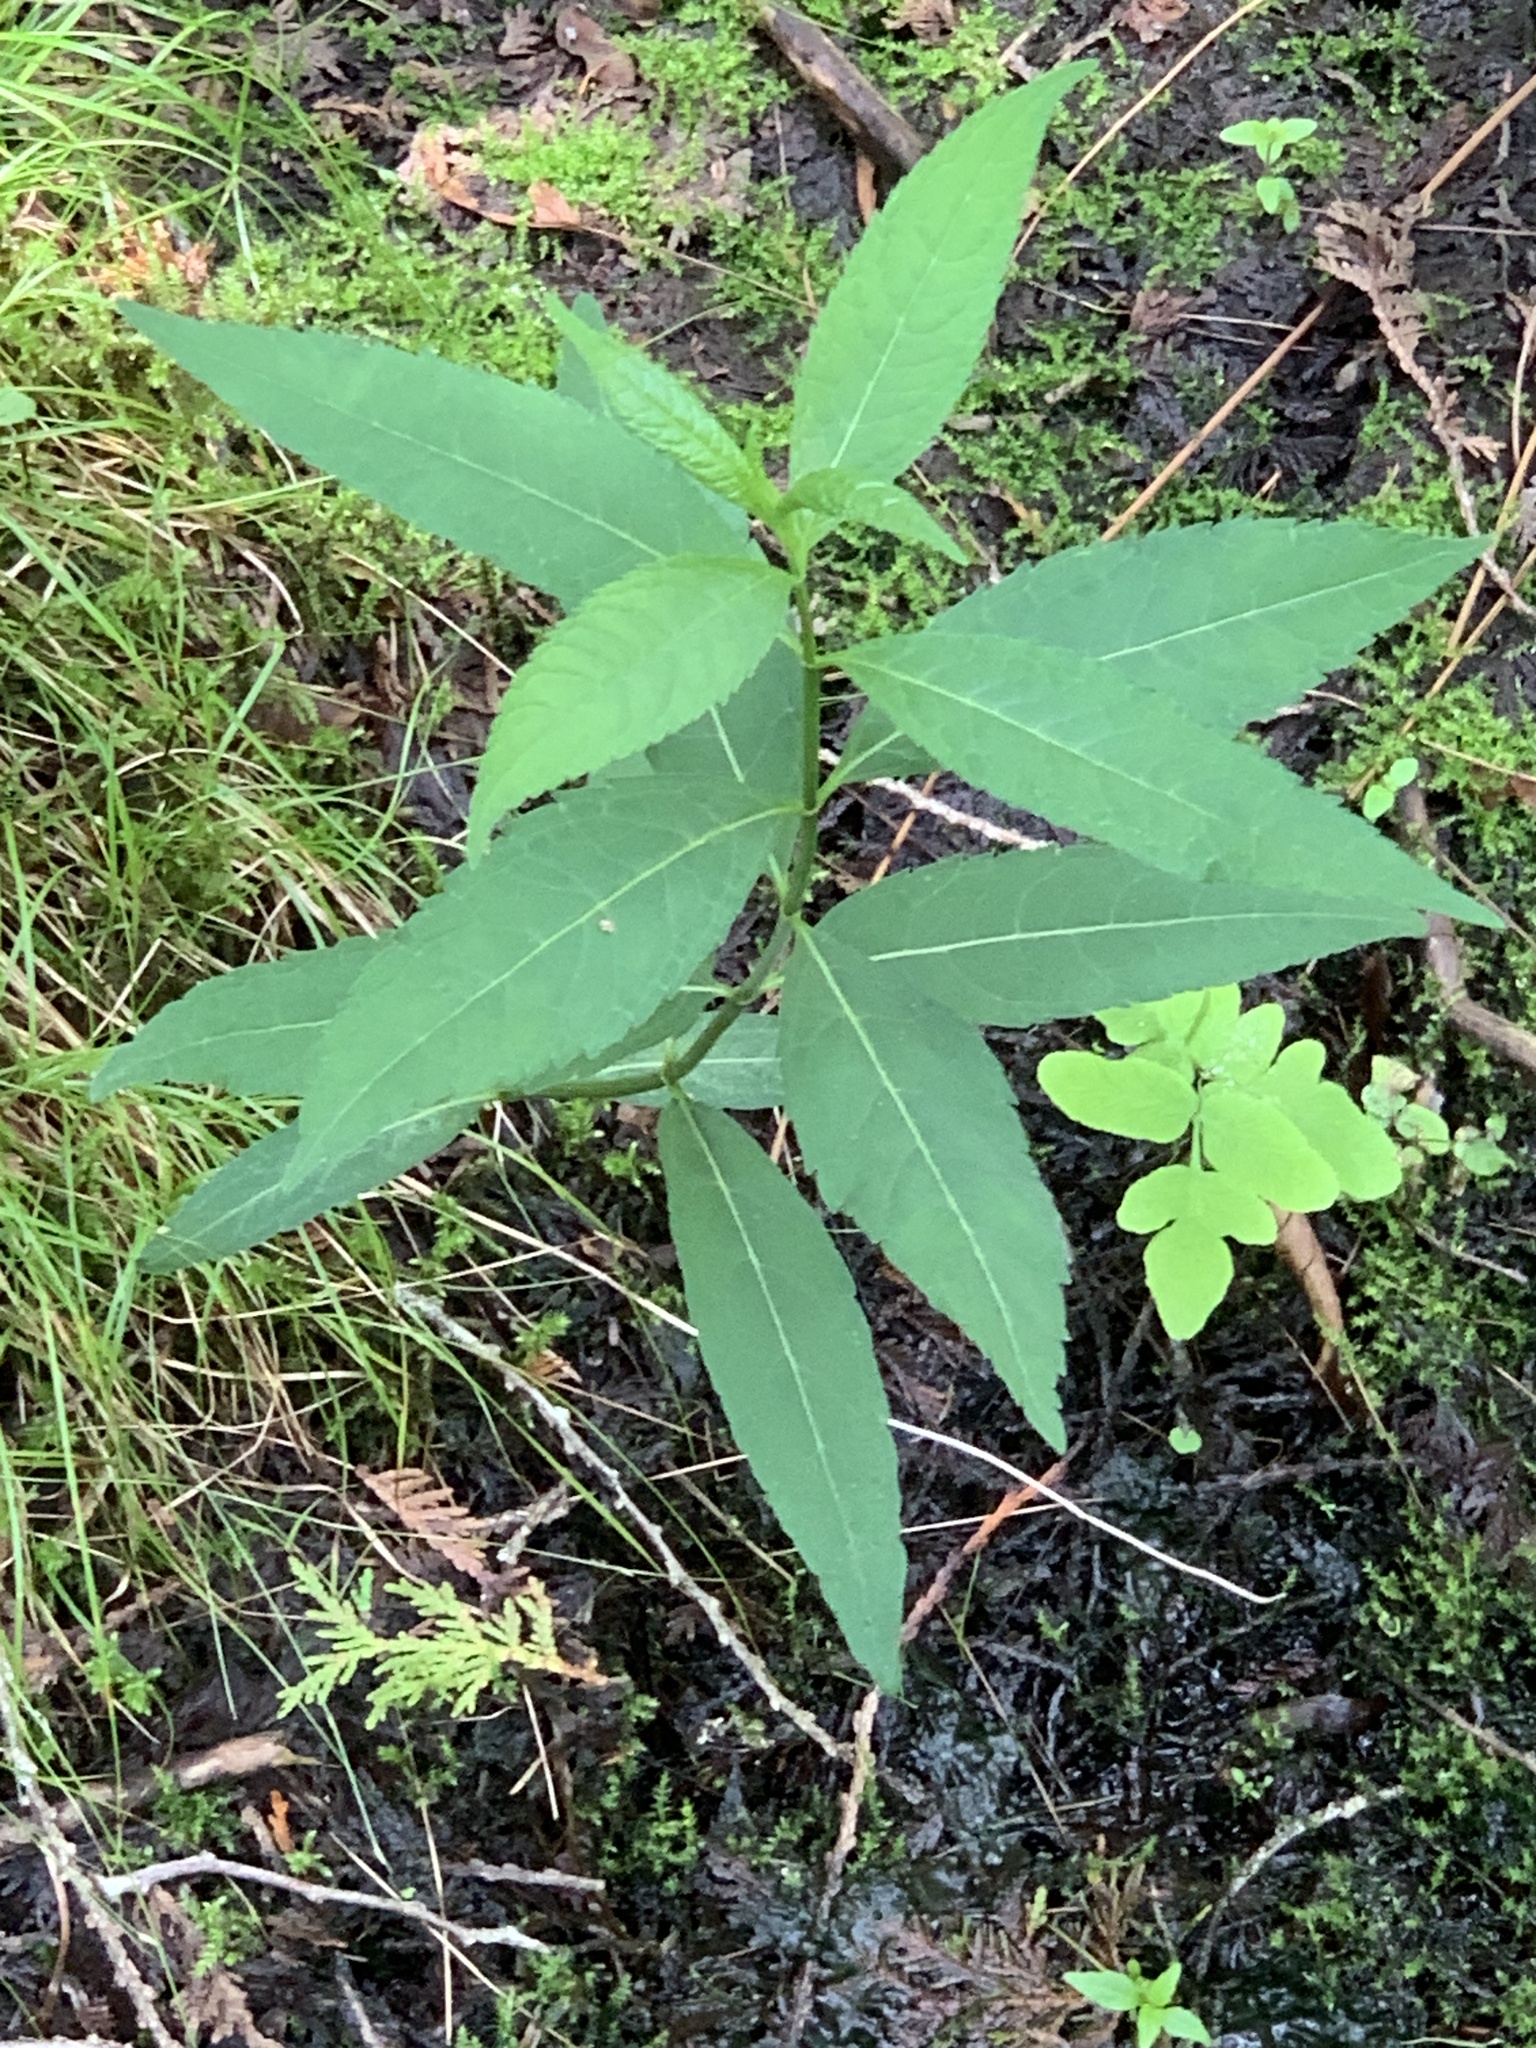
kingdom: Plantae
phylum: Tracheophyta
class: Magnoliopsida
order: Lamiales
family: Plantaginaceae
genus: Chelone
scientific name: Chelone glabra
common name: Snakehead
